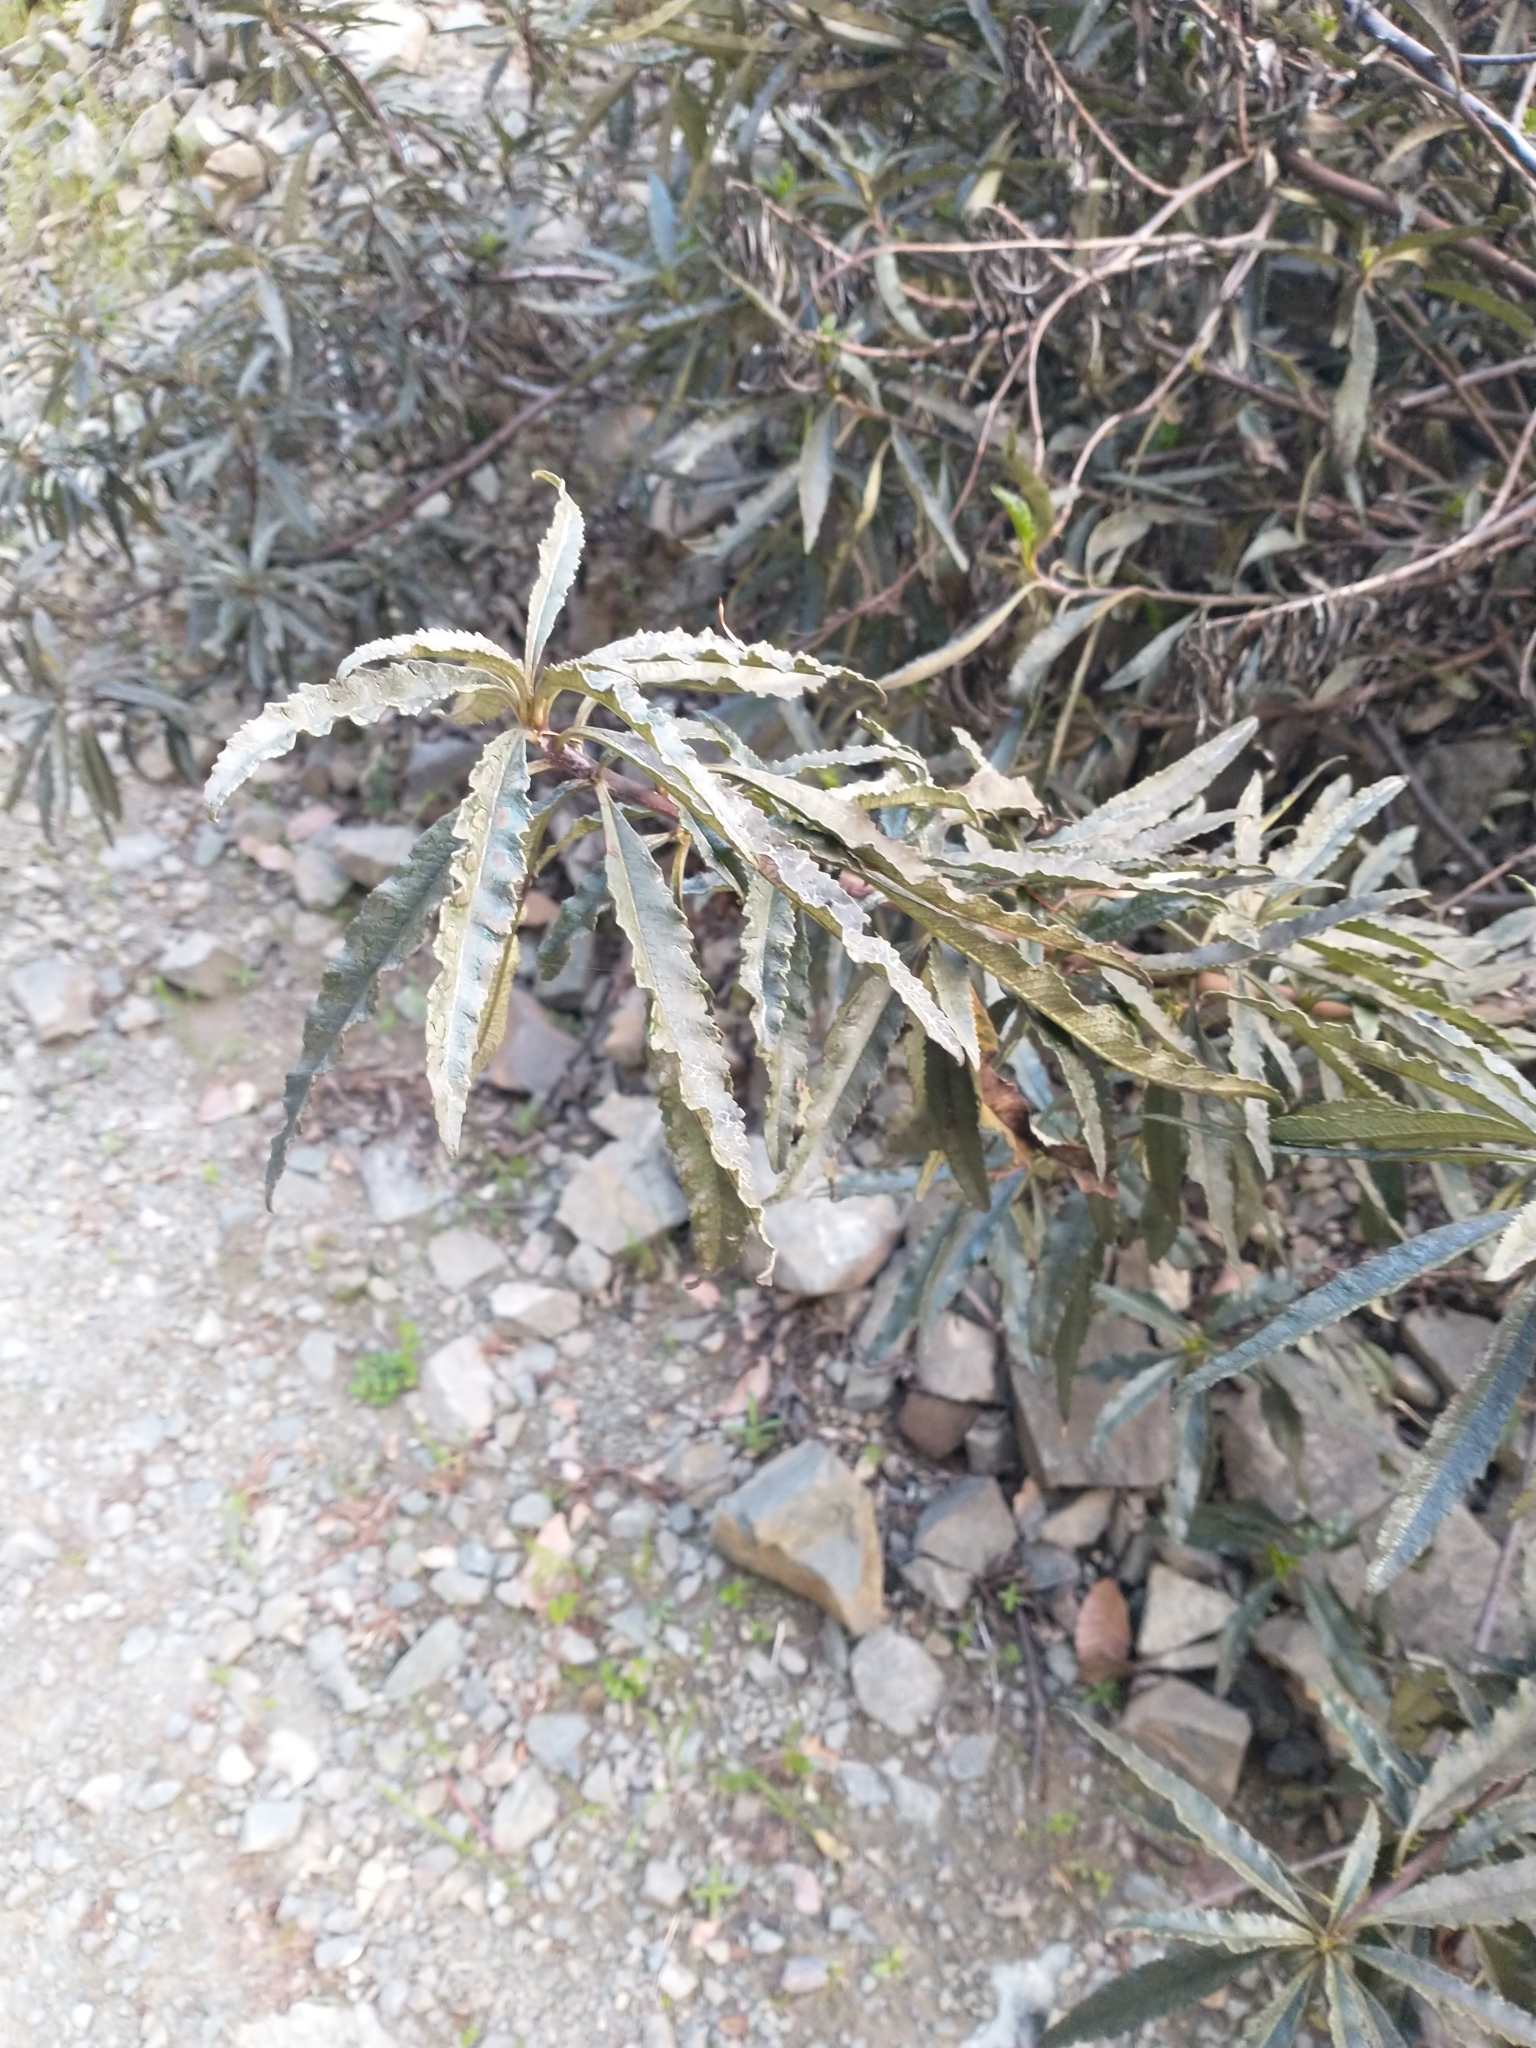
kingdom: Plantae
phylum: Tracheophyta
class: Magnoliopsida
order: Boraginales
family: Namaceae
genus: Eriodictyon
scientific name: Eriodictyon californicum
